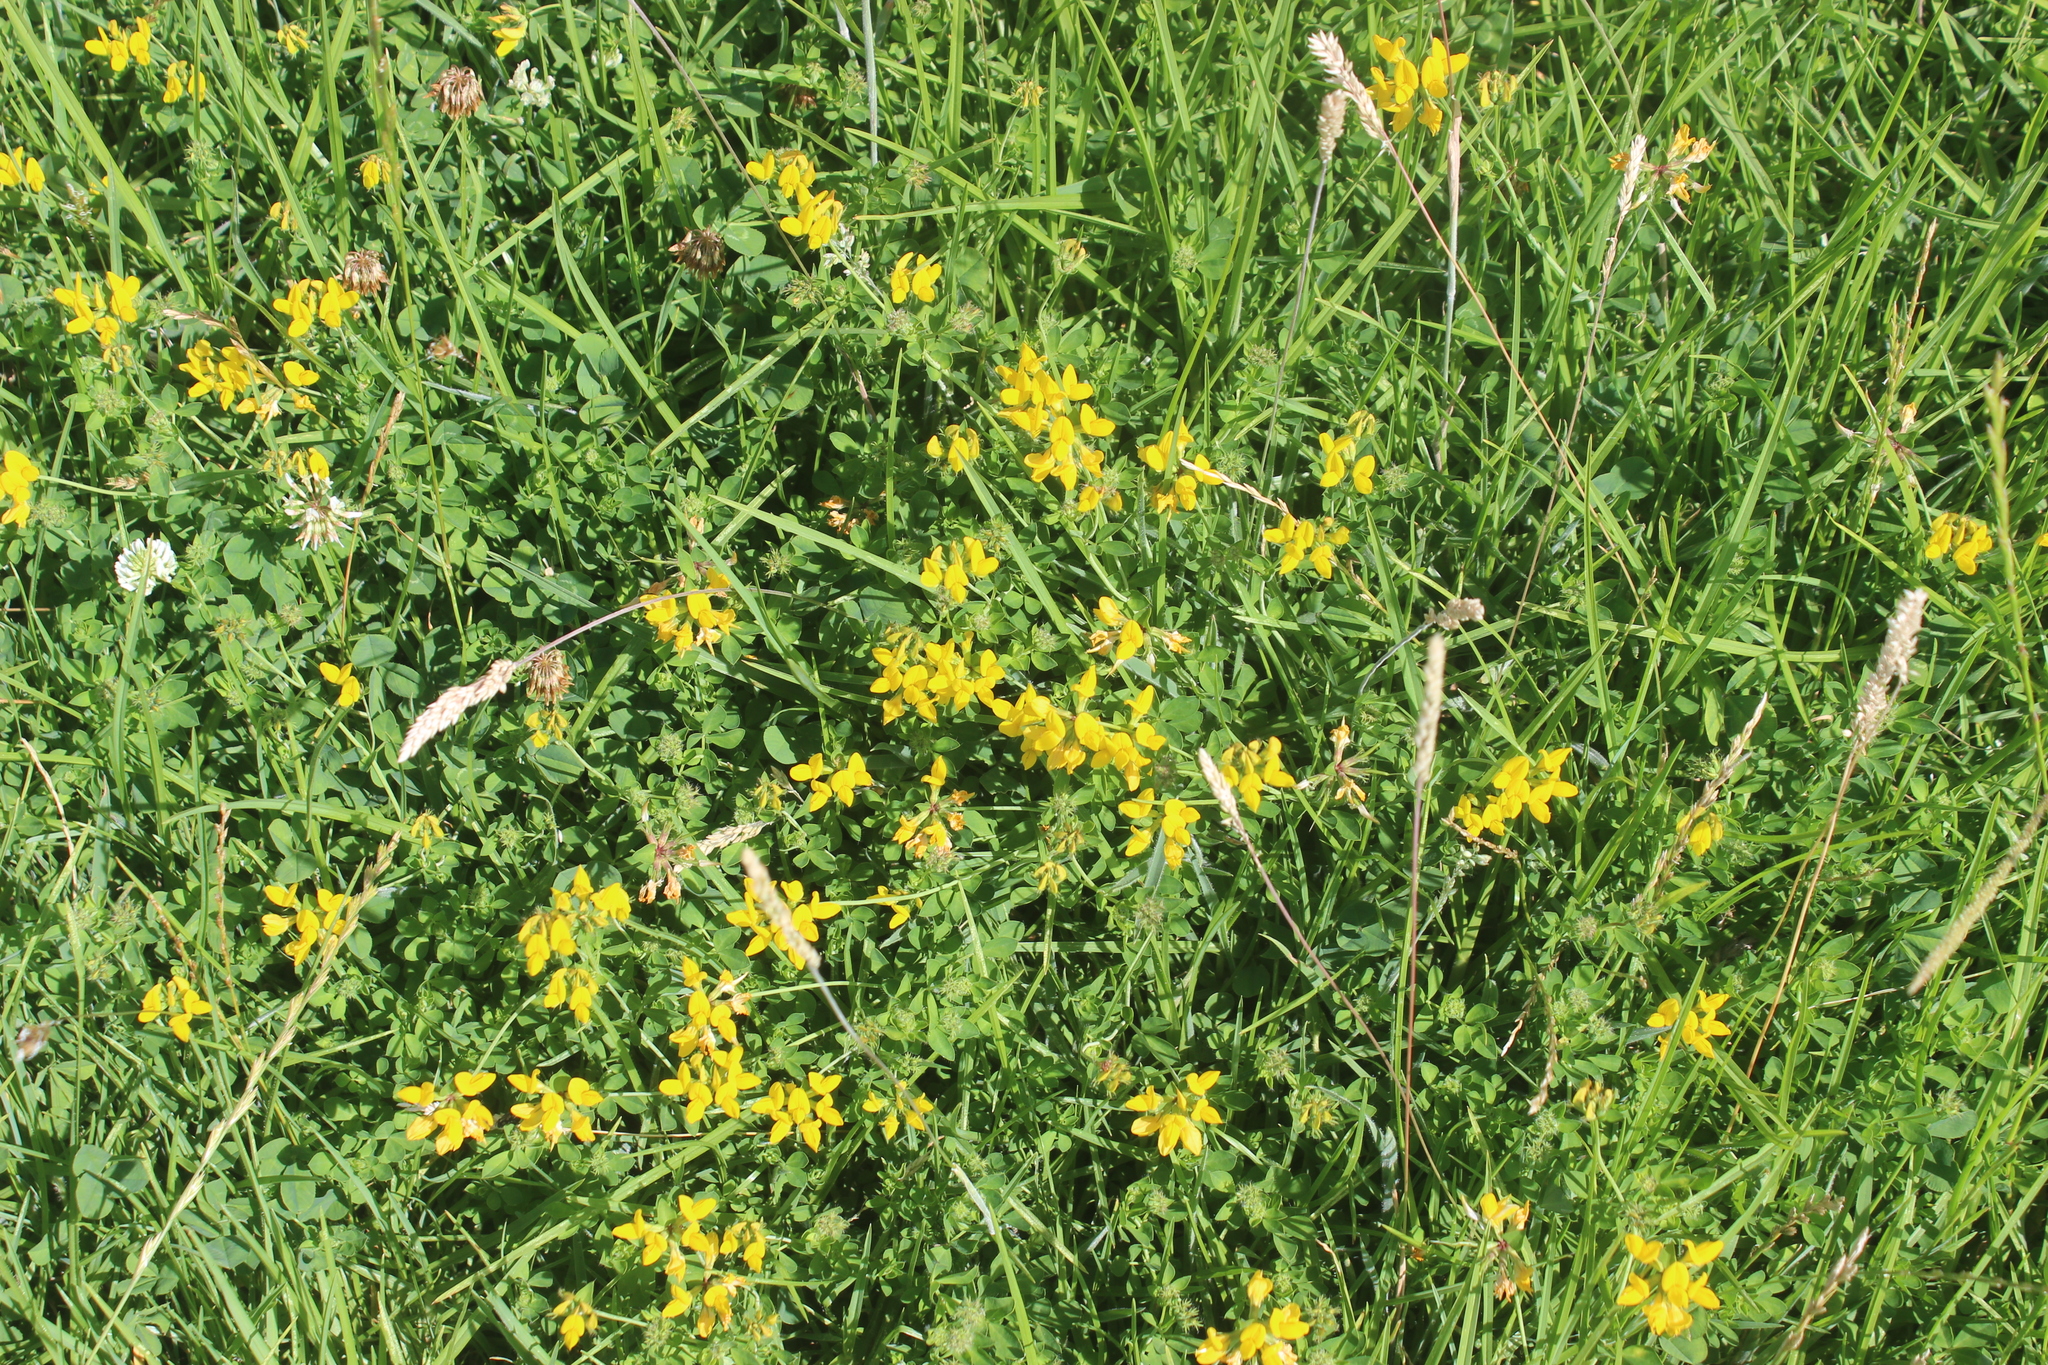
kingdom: Plantae
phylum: Tracheophyta
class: Magnoliopsida
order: Fabales
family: Fabaceae
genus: Lotus
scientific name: Lotus pedunculatus
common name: Greater birdsfoot-trefoil
